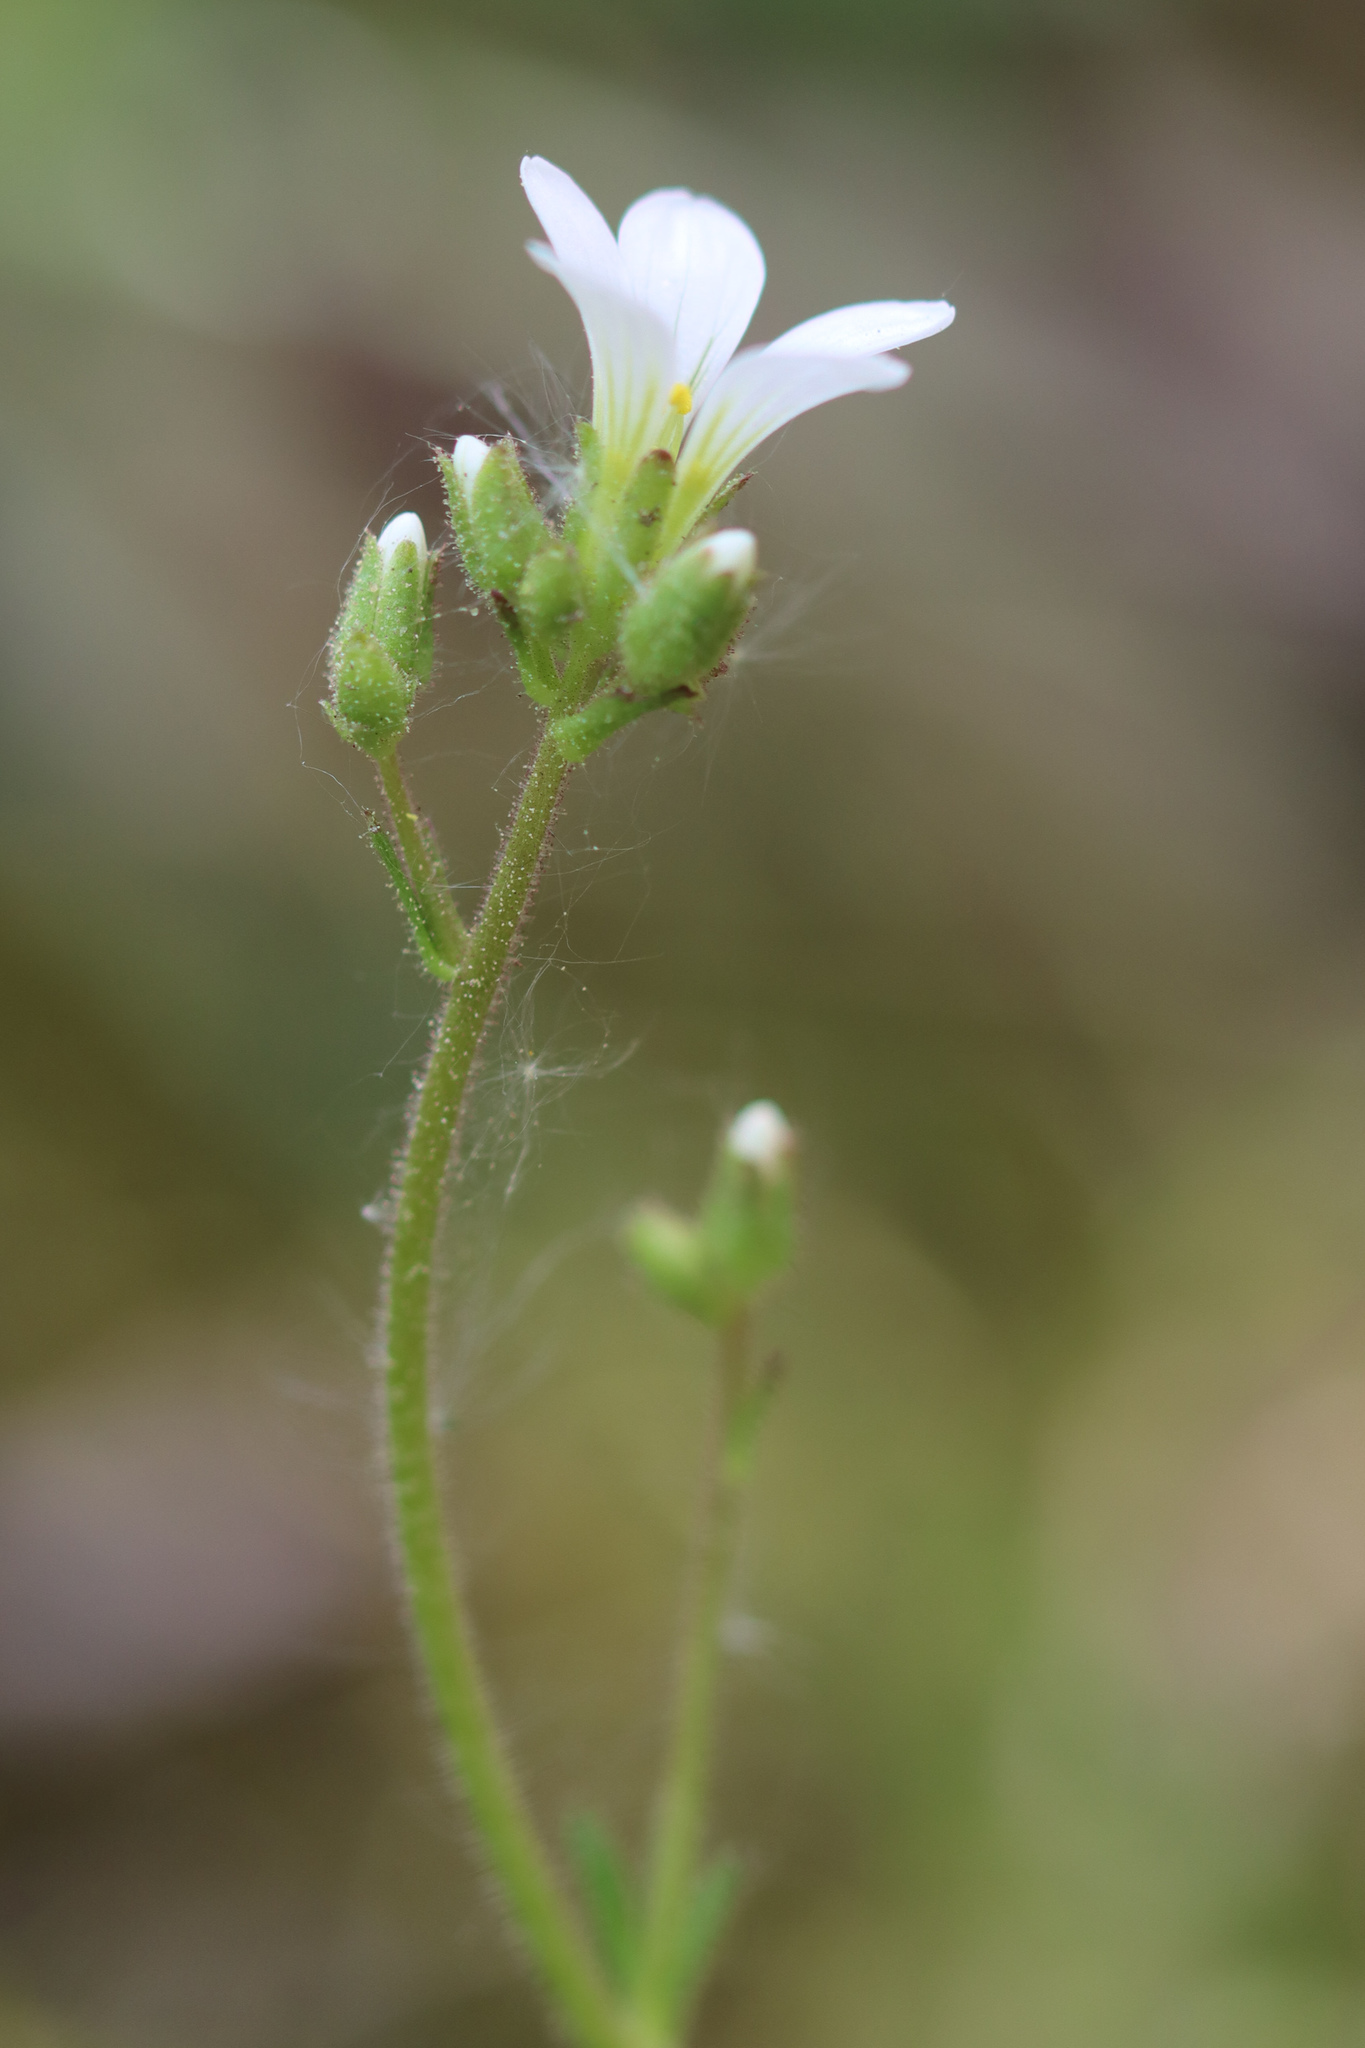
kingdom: Plantae
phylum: Tracheophyta
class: Magnoliopsida
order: Saxifragales
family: Saxifragaceae
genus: Saxifraga
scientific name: Saxifraga granulata
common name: Meadow saxifrage
